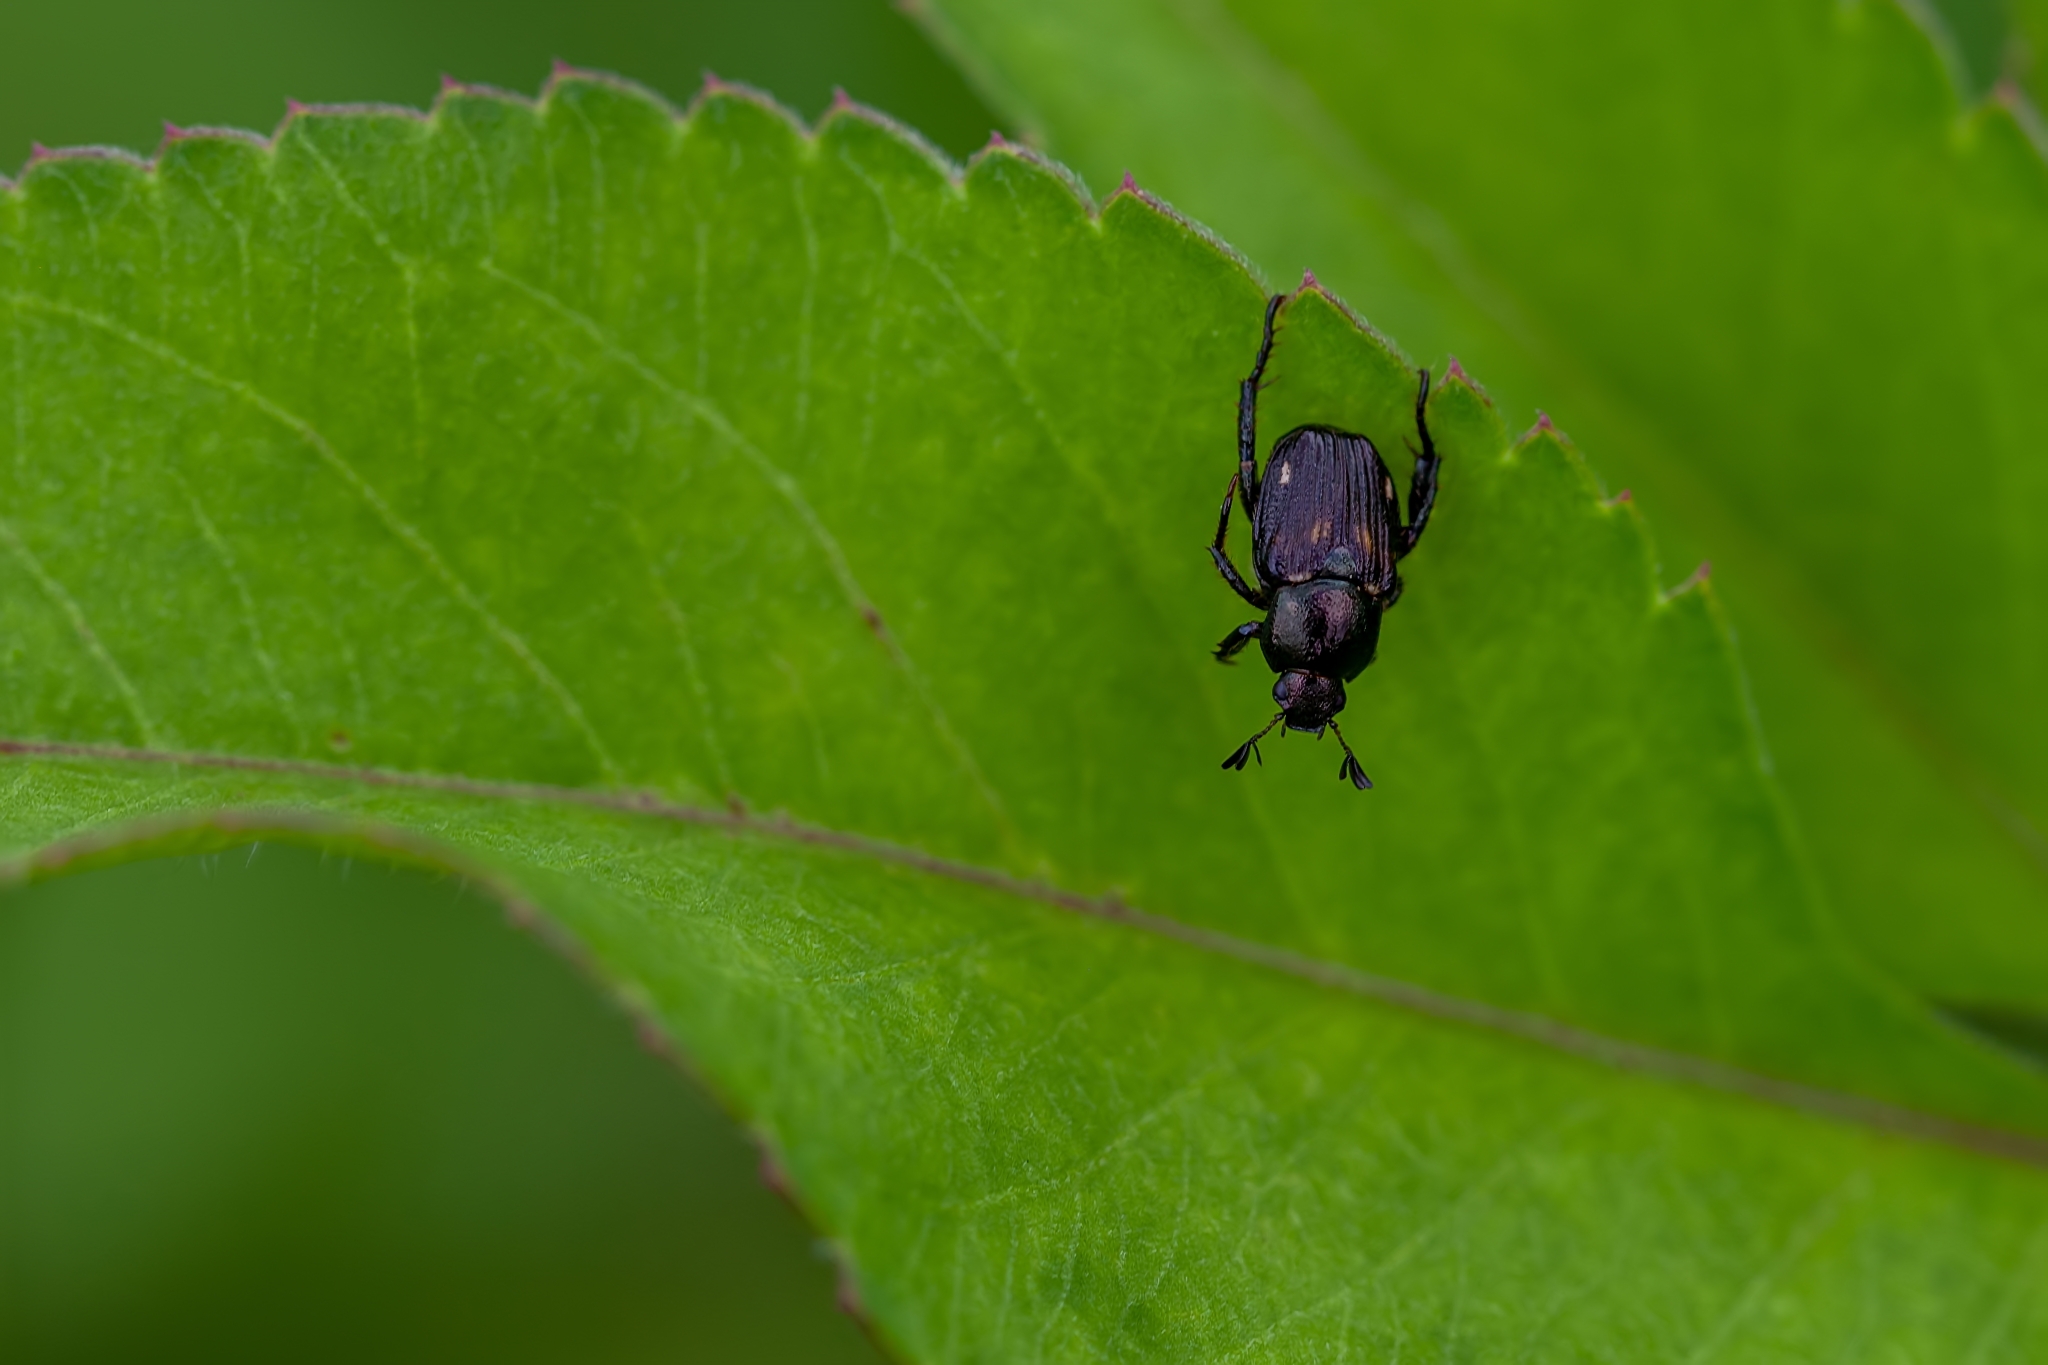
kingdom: Animalia
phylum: Arthropoda
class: Insecta
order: Coleoptera
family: Scarabaeidae
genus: Strigoderma
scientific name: Strigoderma pygmaea
